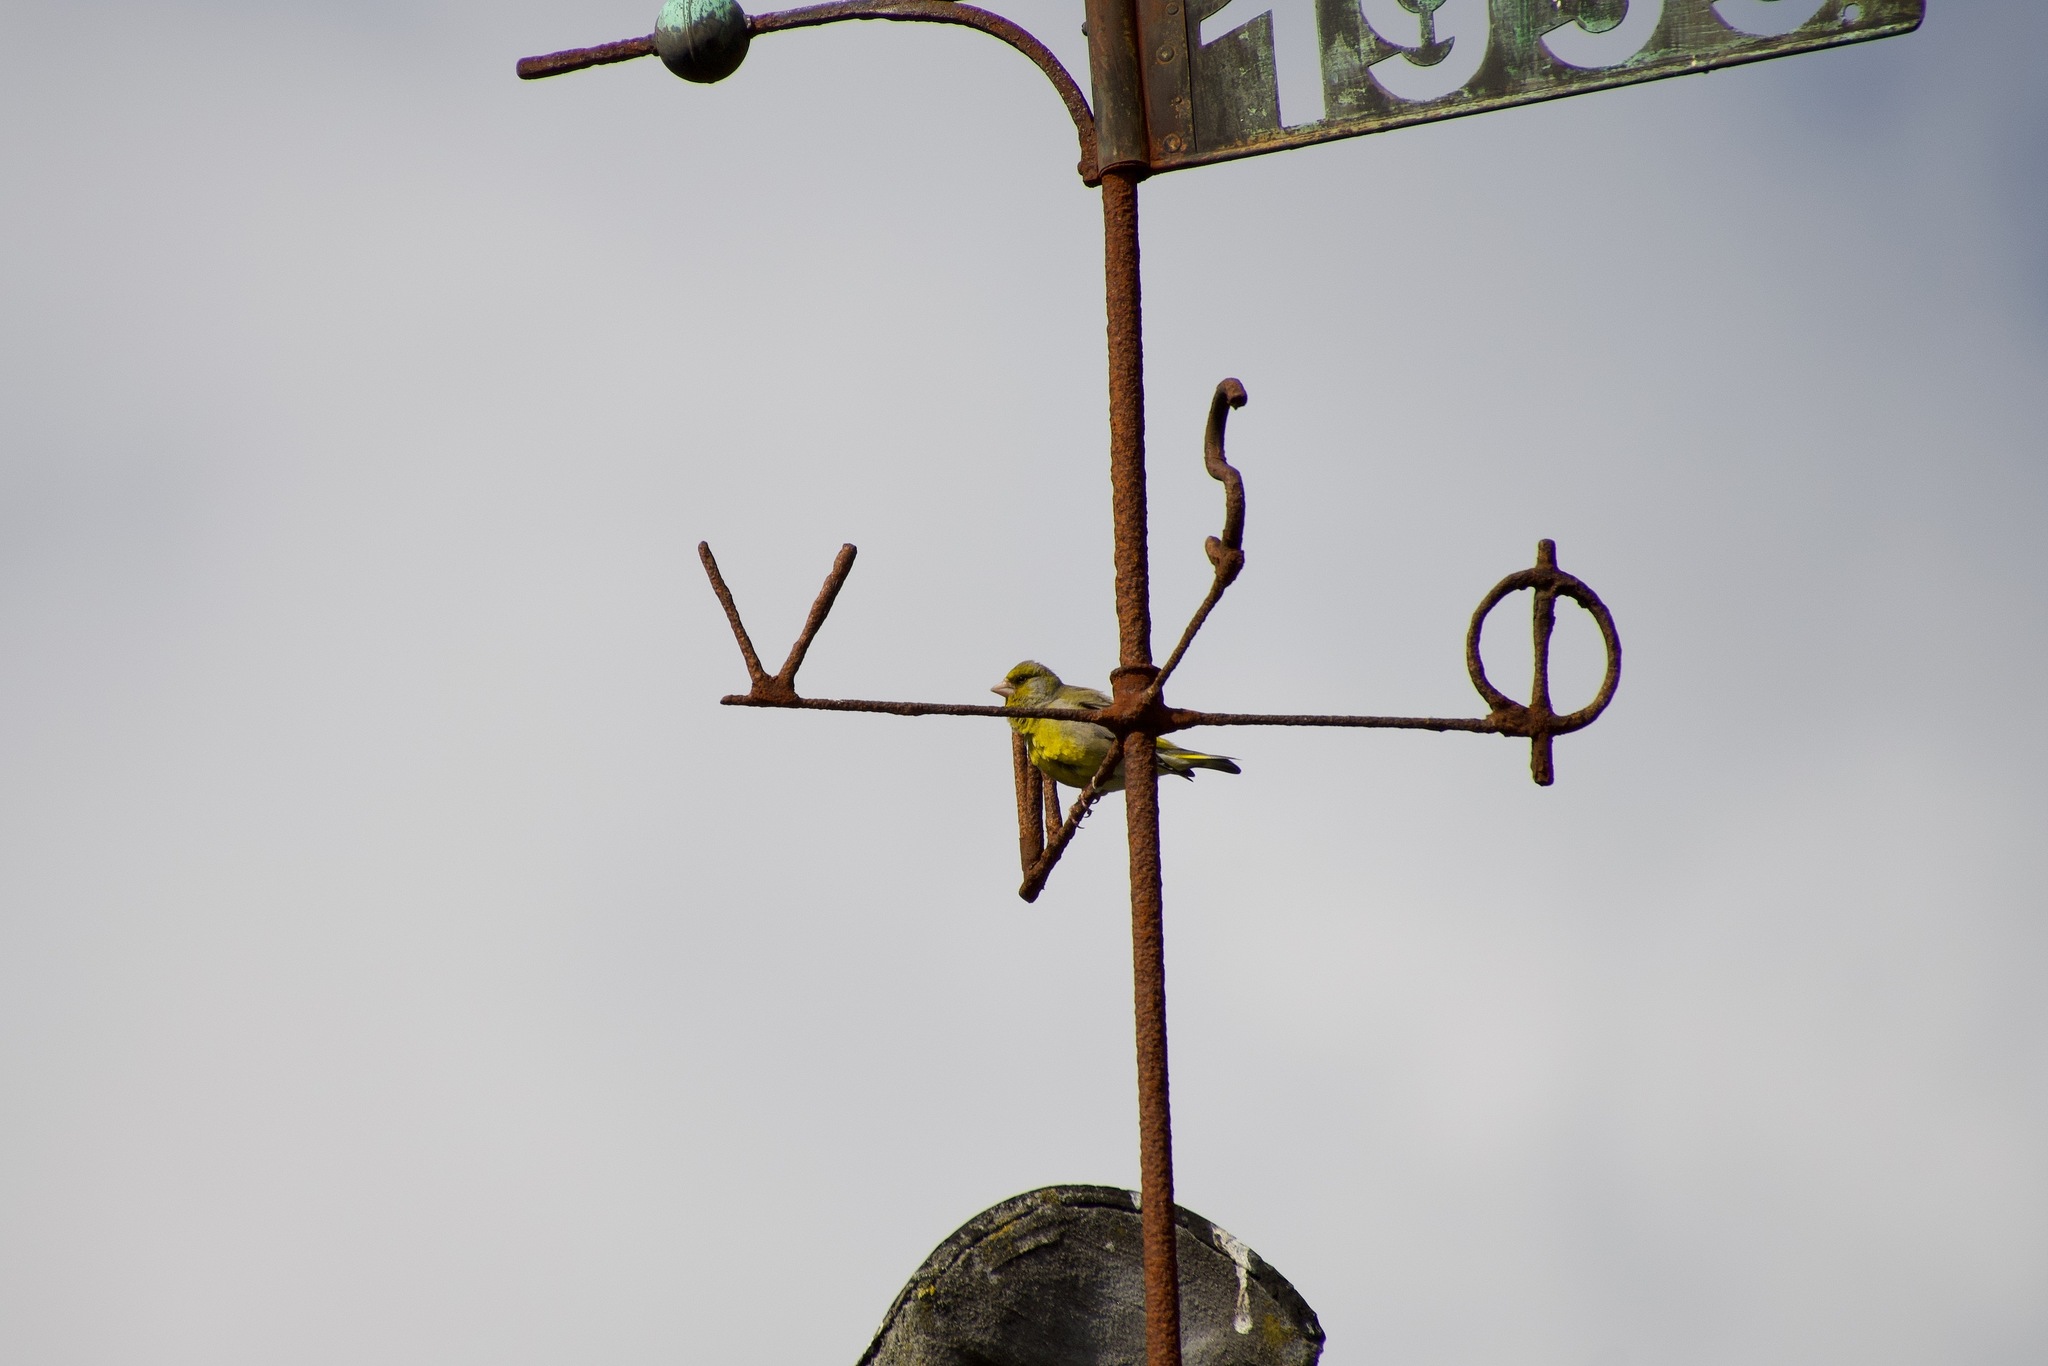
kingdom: Plantae
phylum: Tracheophyta
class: Liliopsida
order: Poales
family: Poaceae
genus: Chloris
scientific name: Chloris chloris
